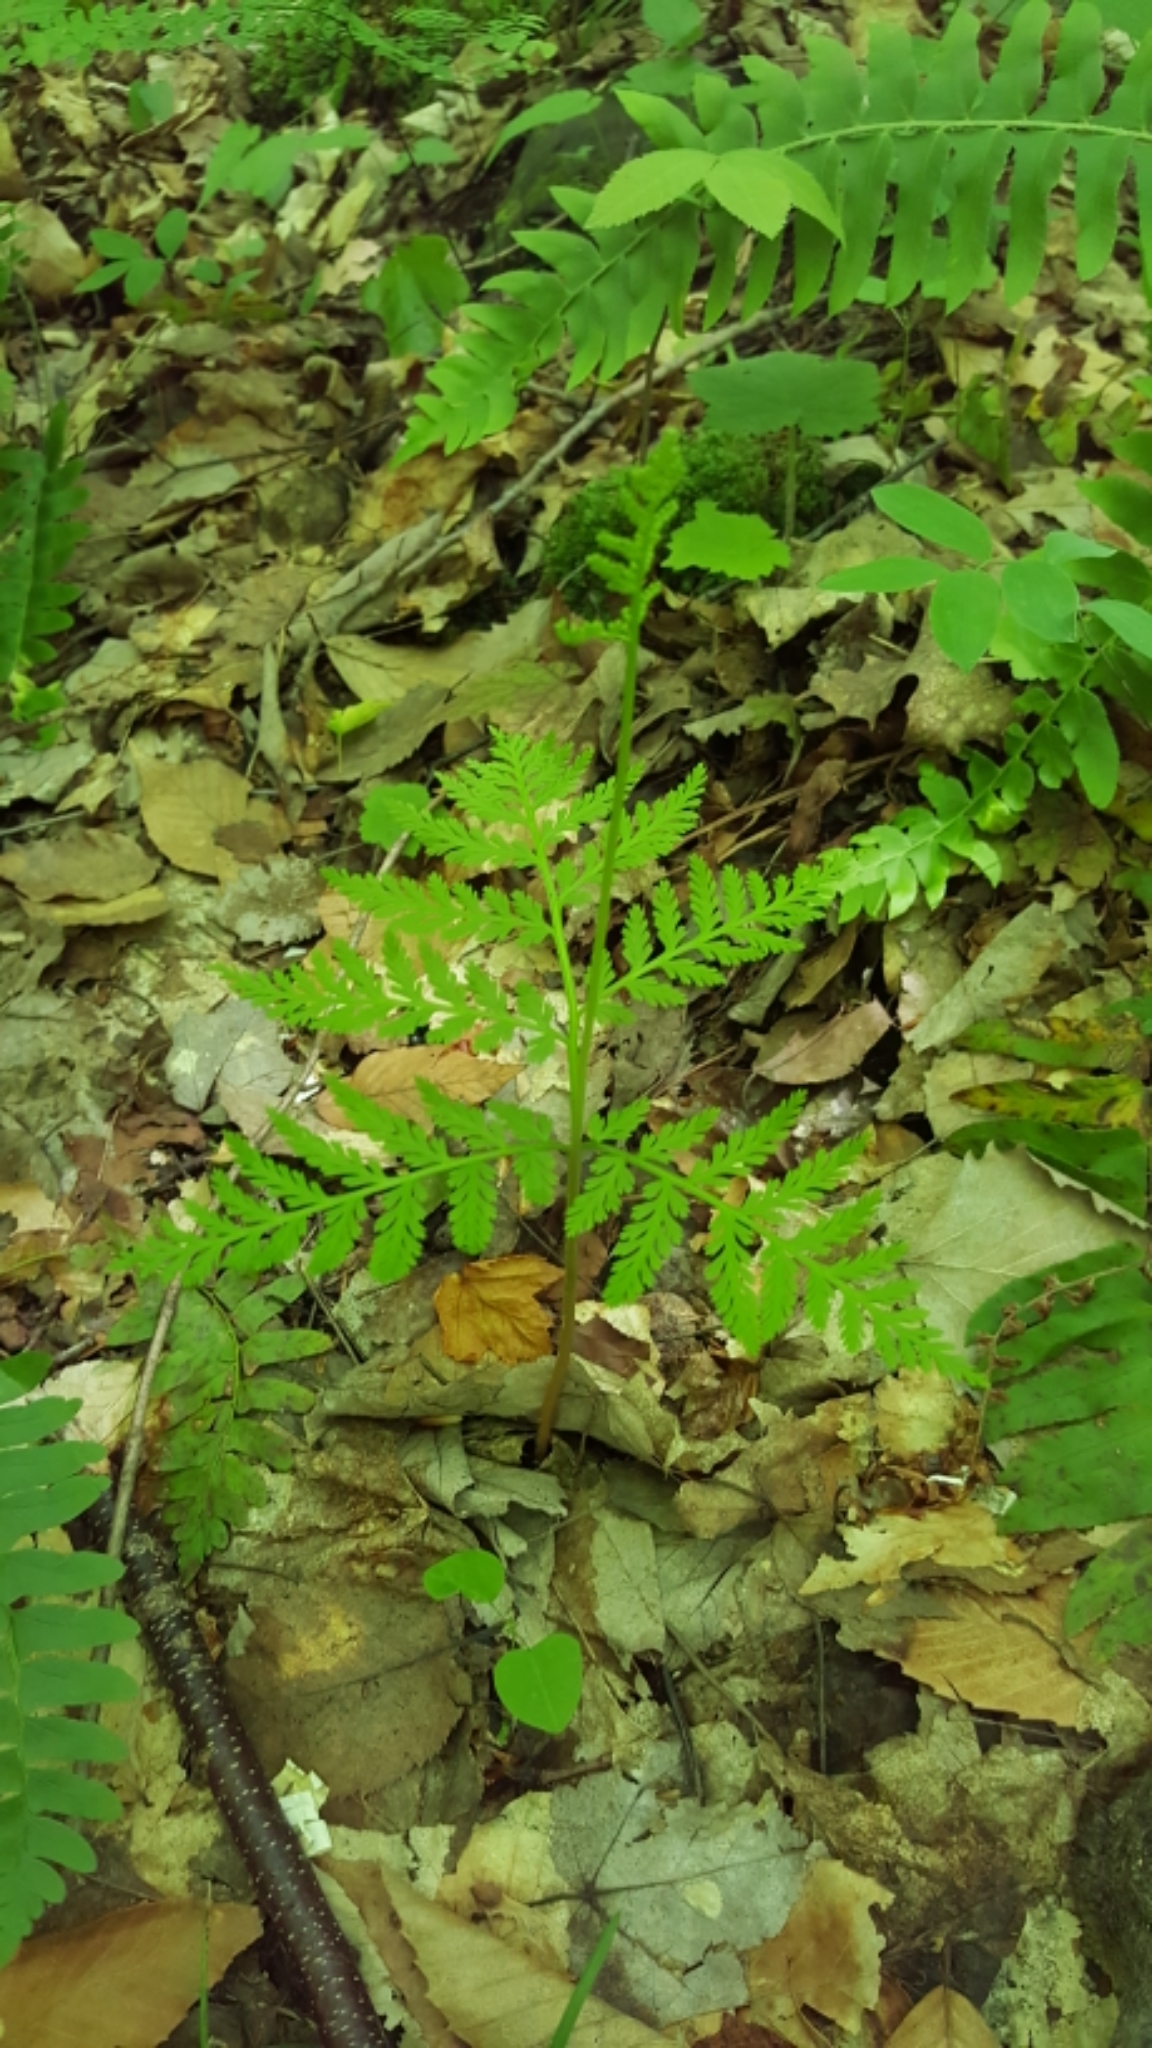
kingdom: Plantae
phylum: Tracheophyta
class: Polypodiopsida
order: Ophioglossales
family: Ophioglossaceae
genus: Botrypus
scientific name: Botrypus virginianus
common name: Common grapefern
